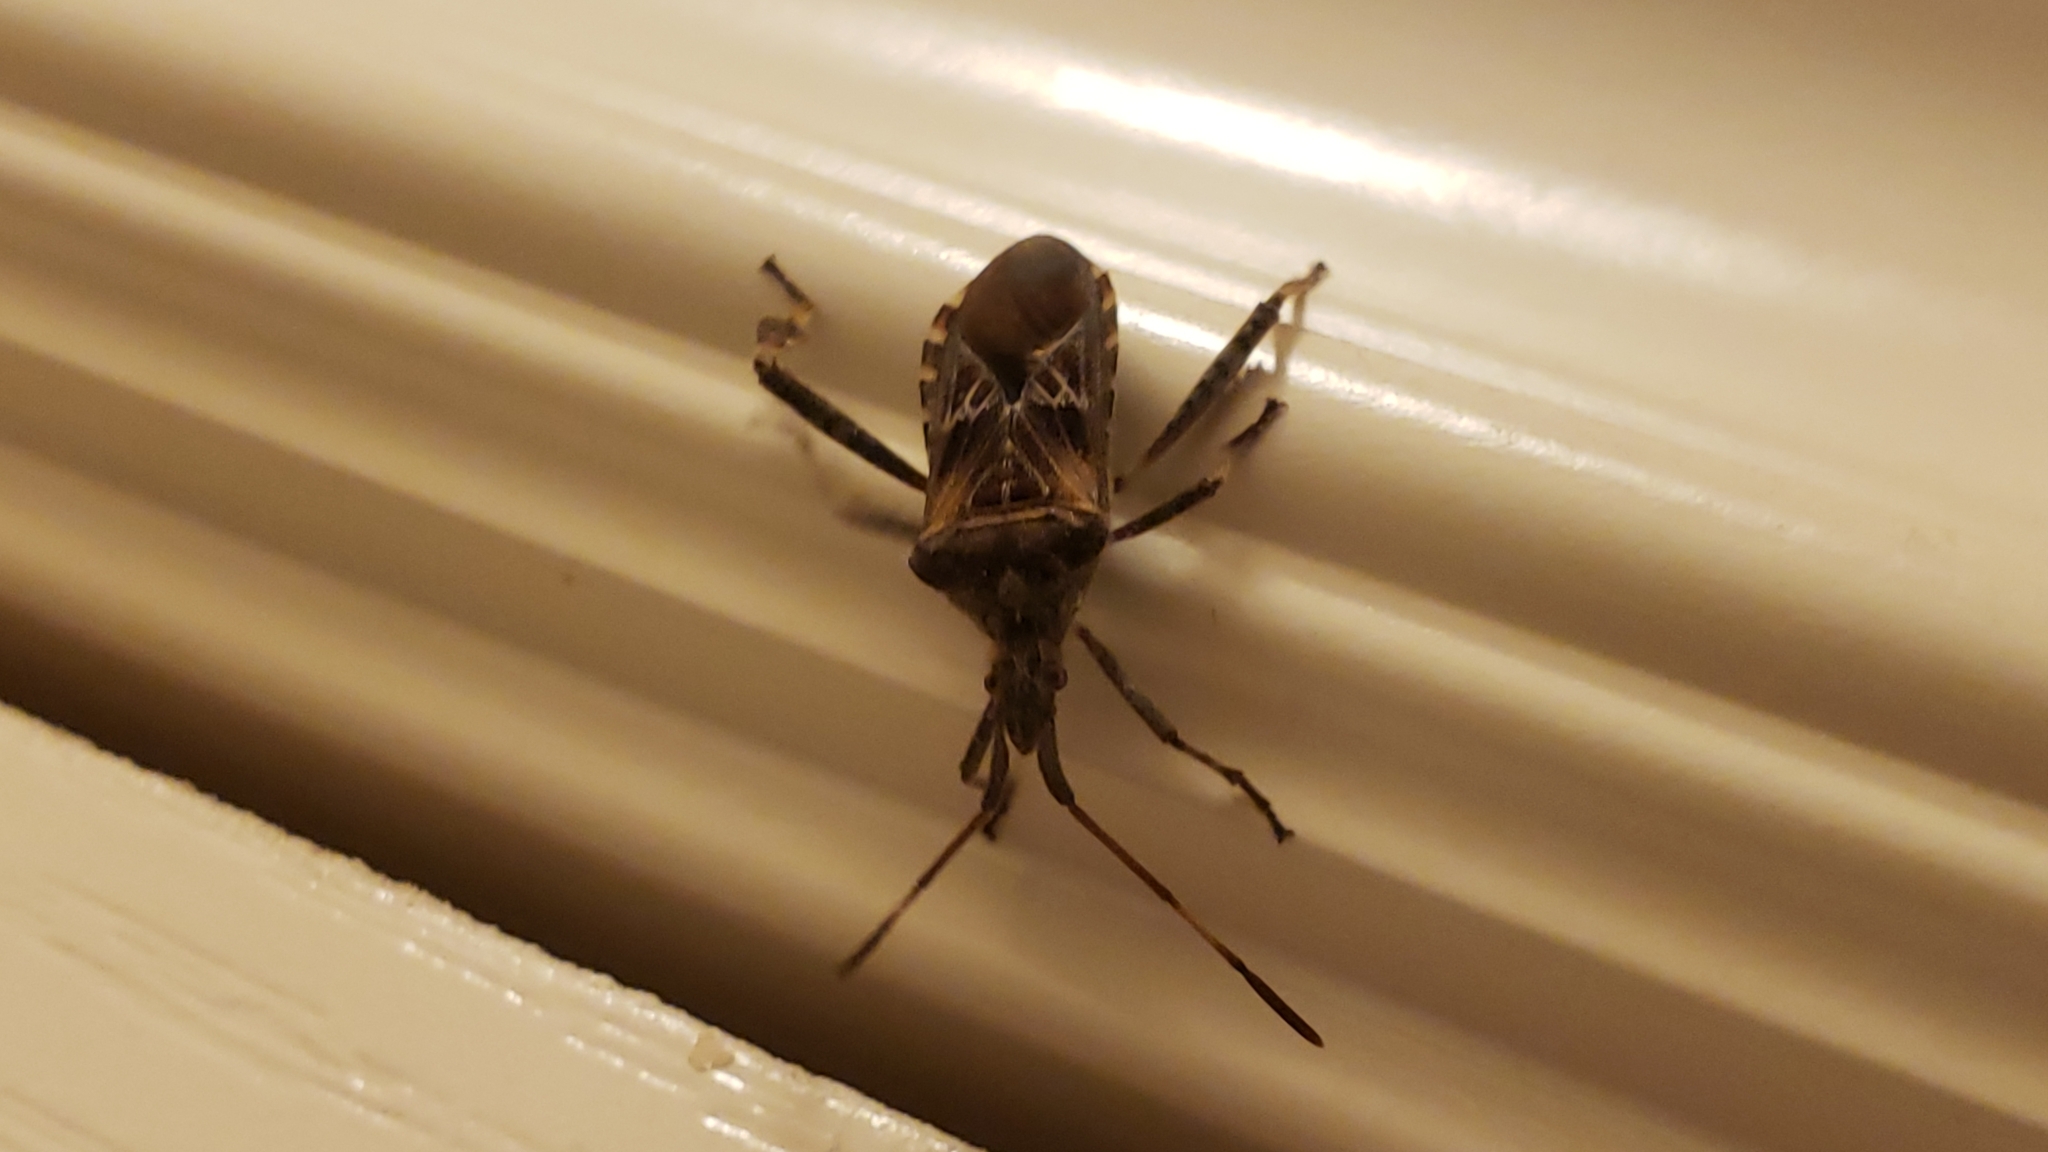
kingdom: Animalia
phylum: Arthropoda
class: Insecta
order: Hemiptera
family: Coreidae
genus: Leptoglossus
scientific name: Leptoglossus occidentalis
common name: Western conifer-seed bug
